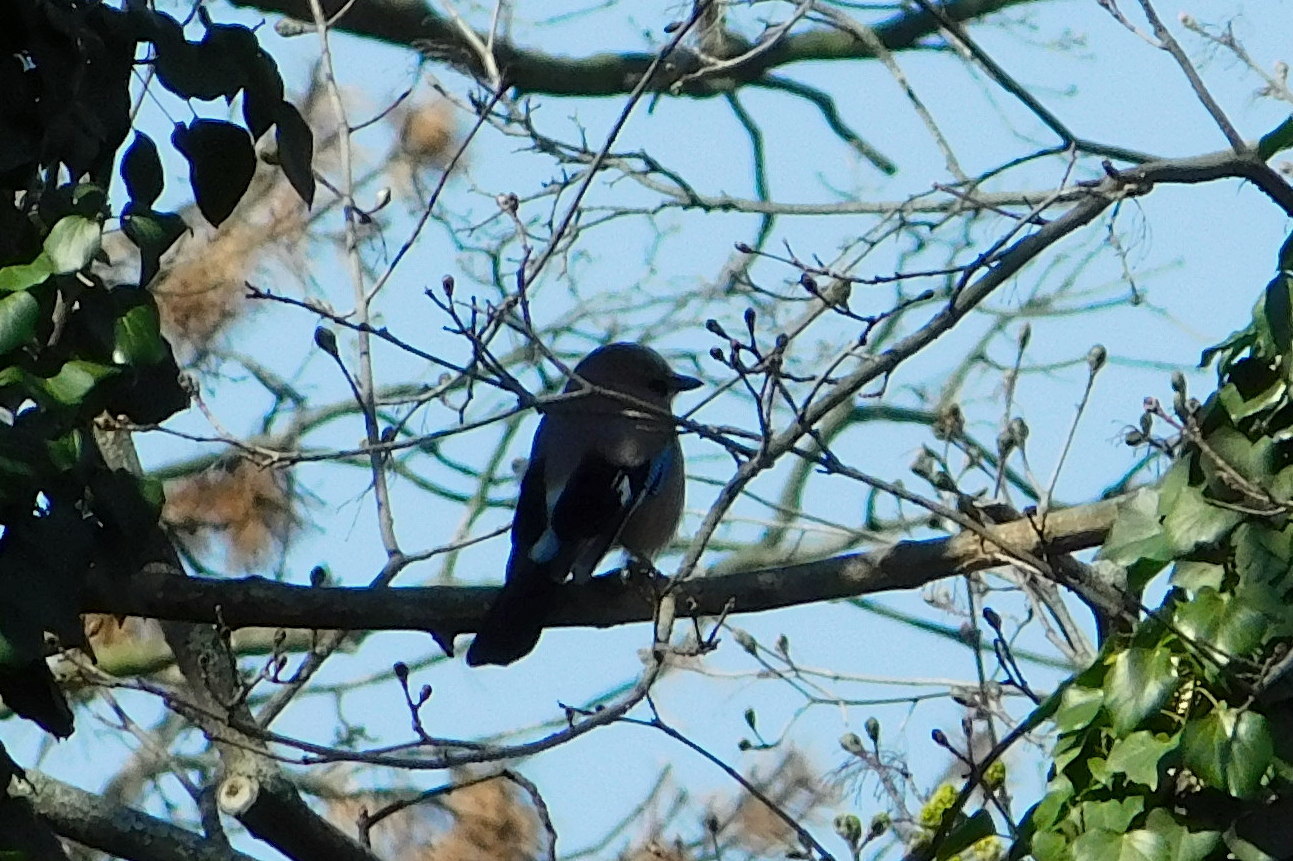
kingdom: Animalia
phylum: Chordata
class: Aves
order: Passeriformes
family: Corvidae
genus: Garrulus
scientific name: Garrulus glandarius
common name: Eurasian jay
